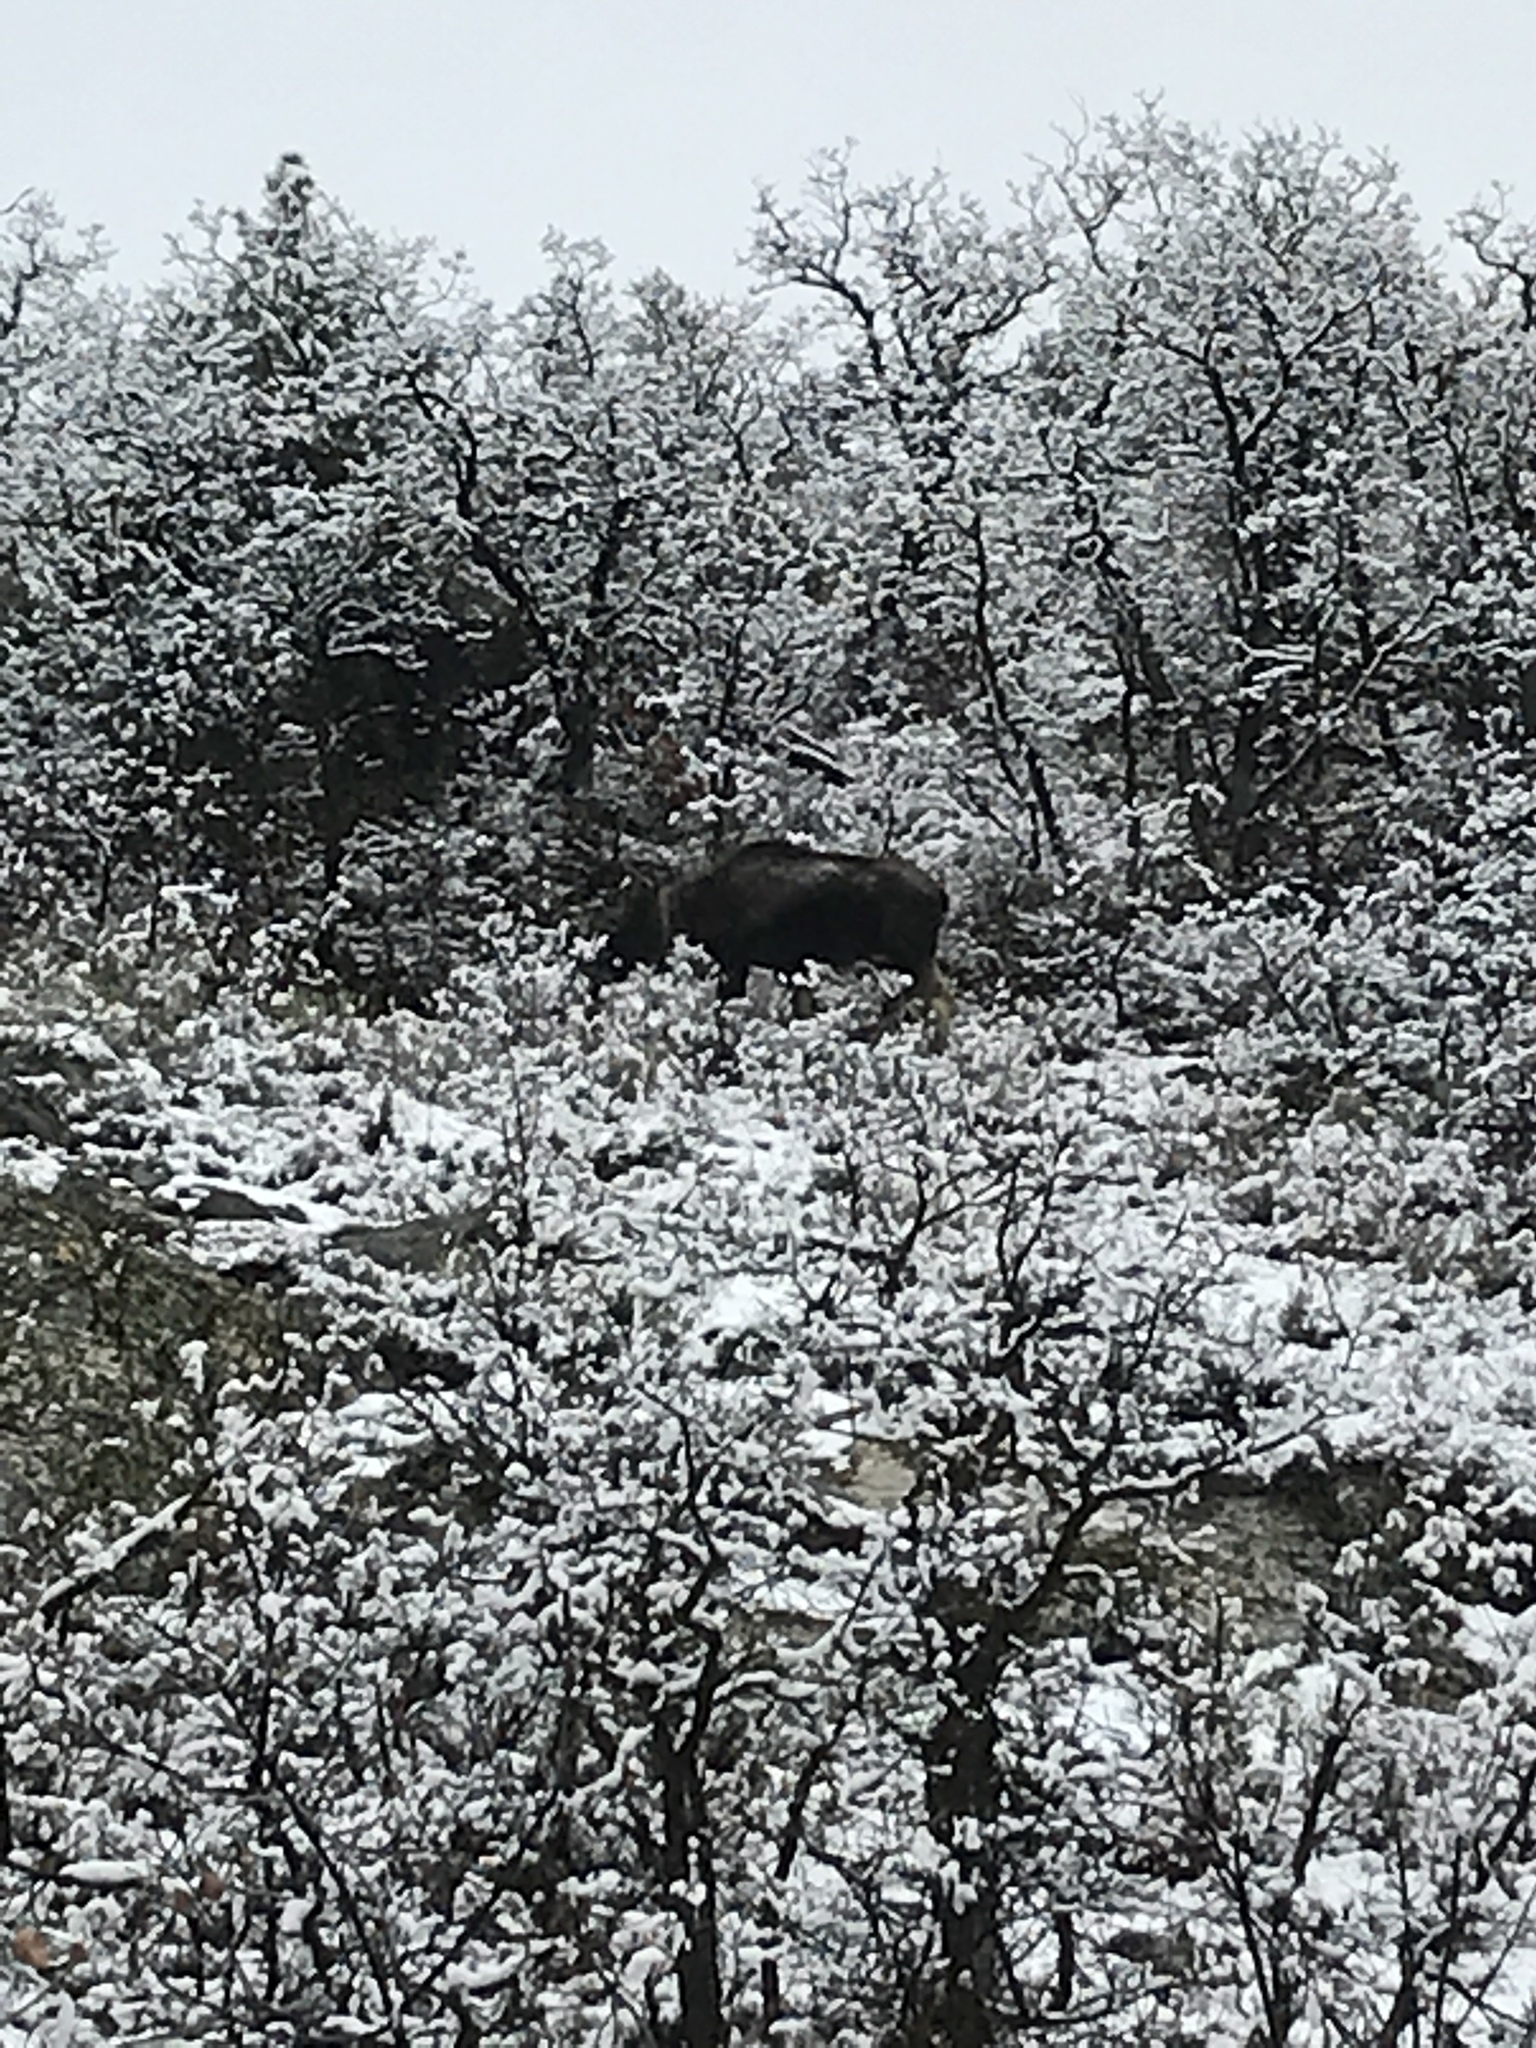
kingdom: Animalia
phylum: Chordata
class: Mammalia
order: Artiodactyla
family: Cervidae
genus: Alces
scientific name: Alces alces
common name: Moose
